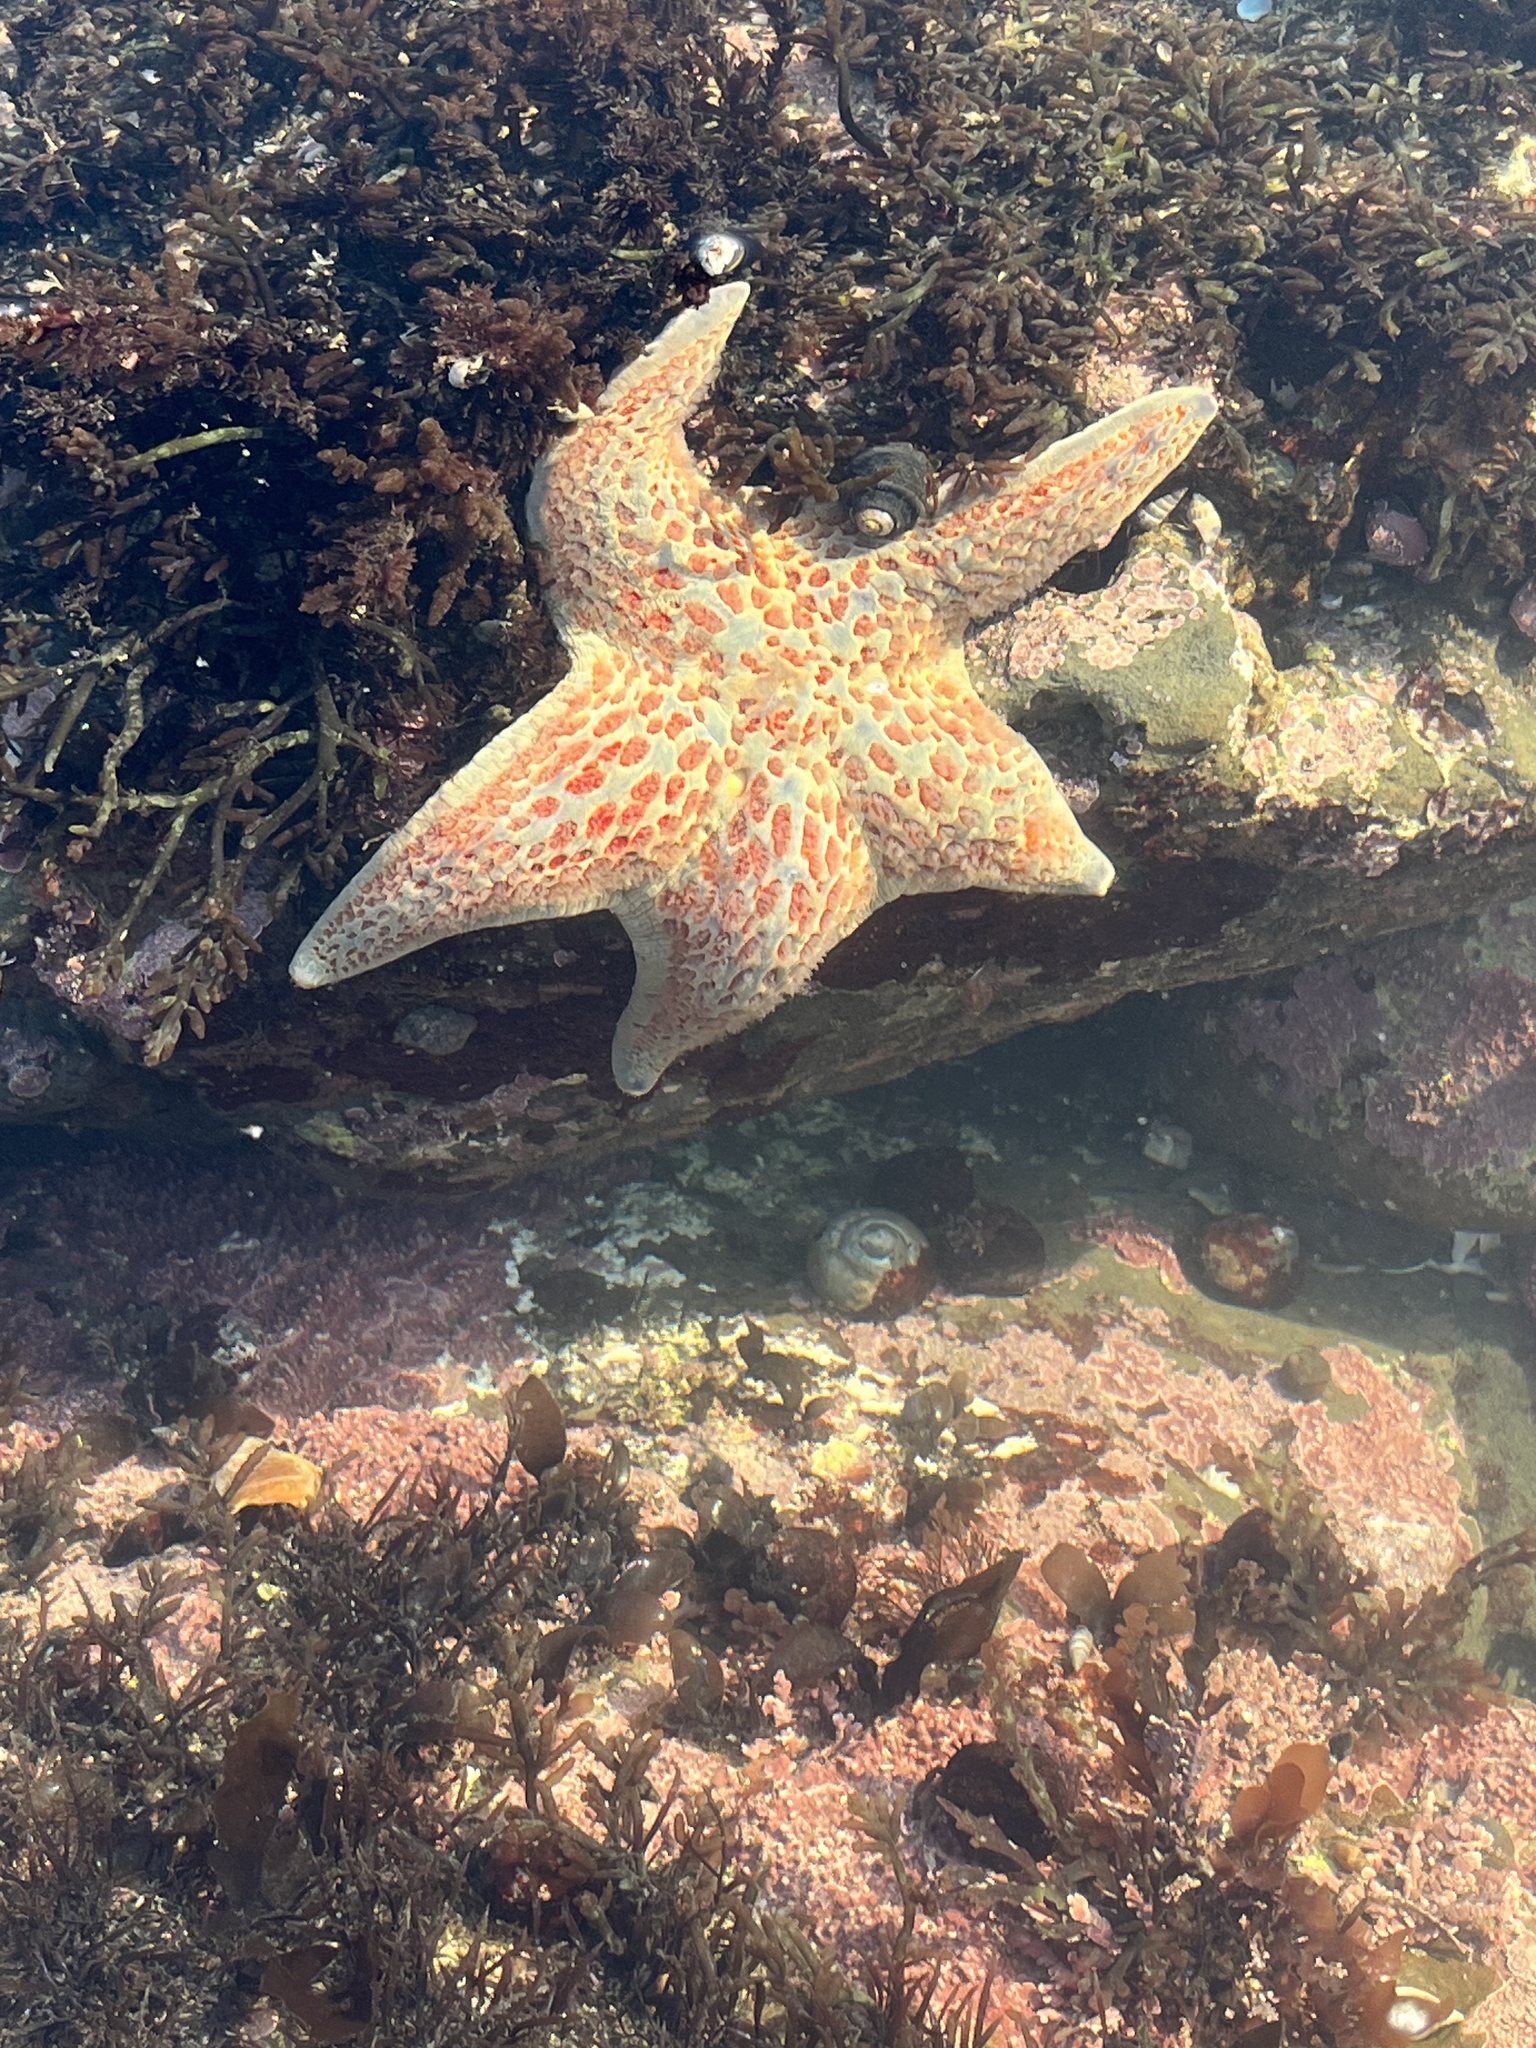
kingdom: Animalia
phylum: Echinodermata
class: Asteroidea
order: Valvatida
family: Asteropseidae
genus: Dermasterias
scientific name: Dermasterias imbricata
